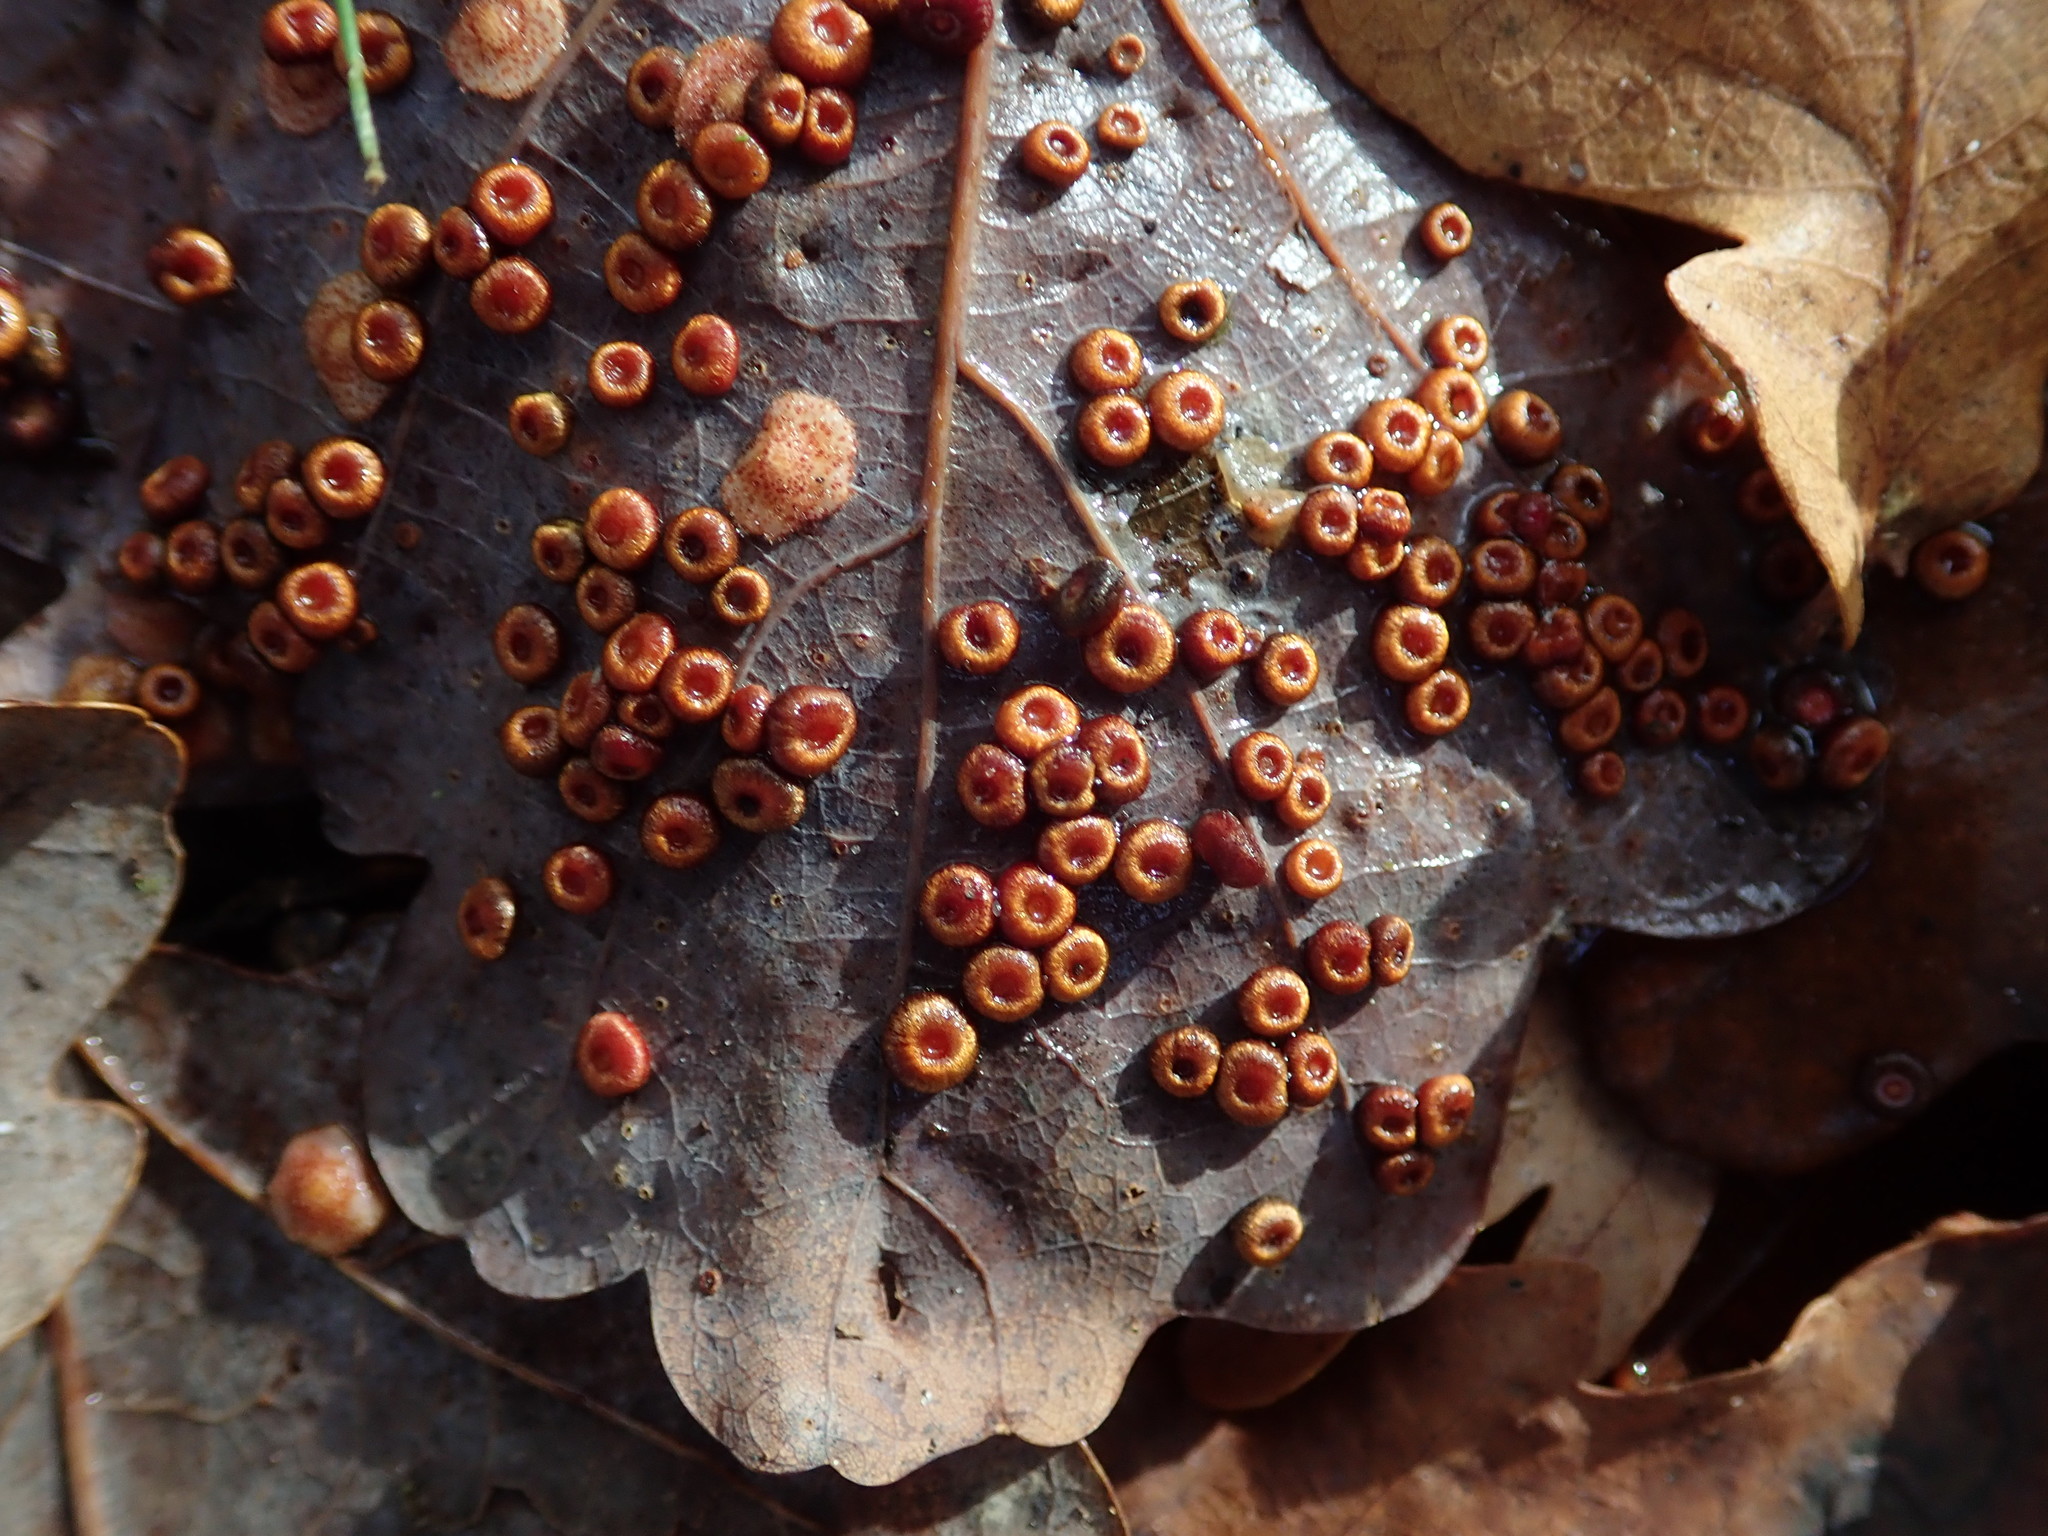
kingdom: Animalia
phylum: Arthropoda
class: Insecta
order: Hymenoptera
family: Cynipidae
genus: Neuroterus
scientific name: Neuroterus numismalis
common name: Silk-button spangle gall
